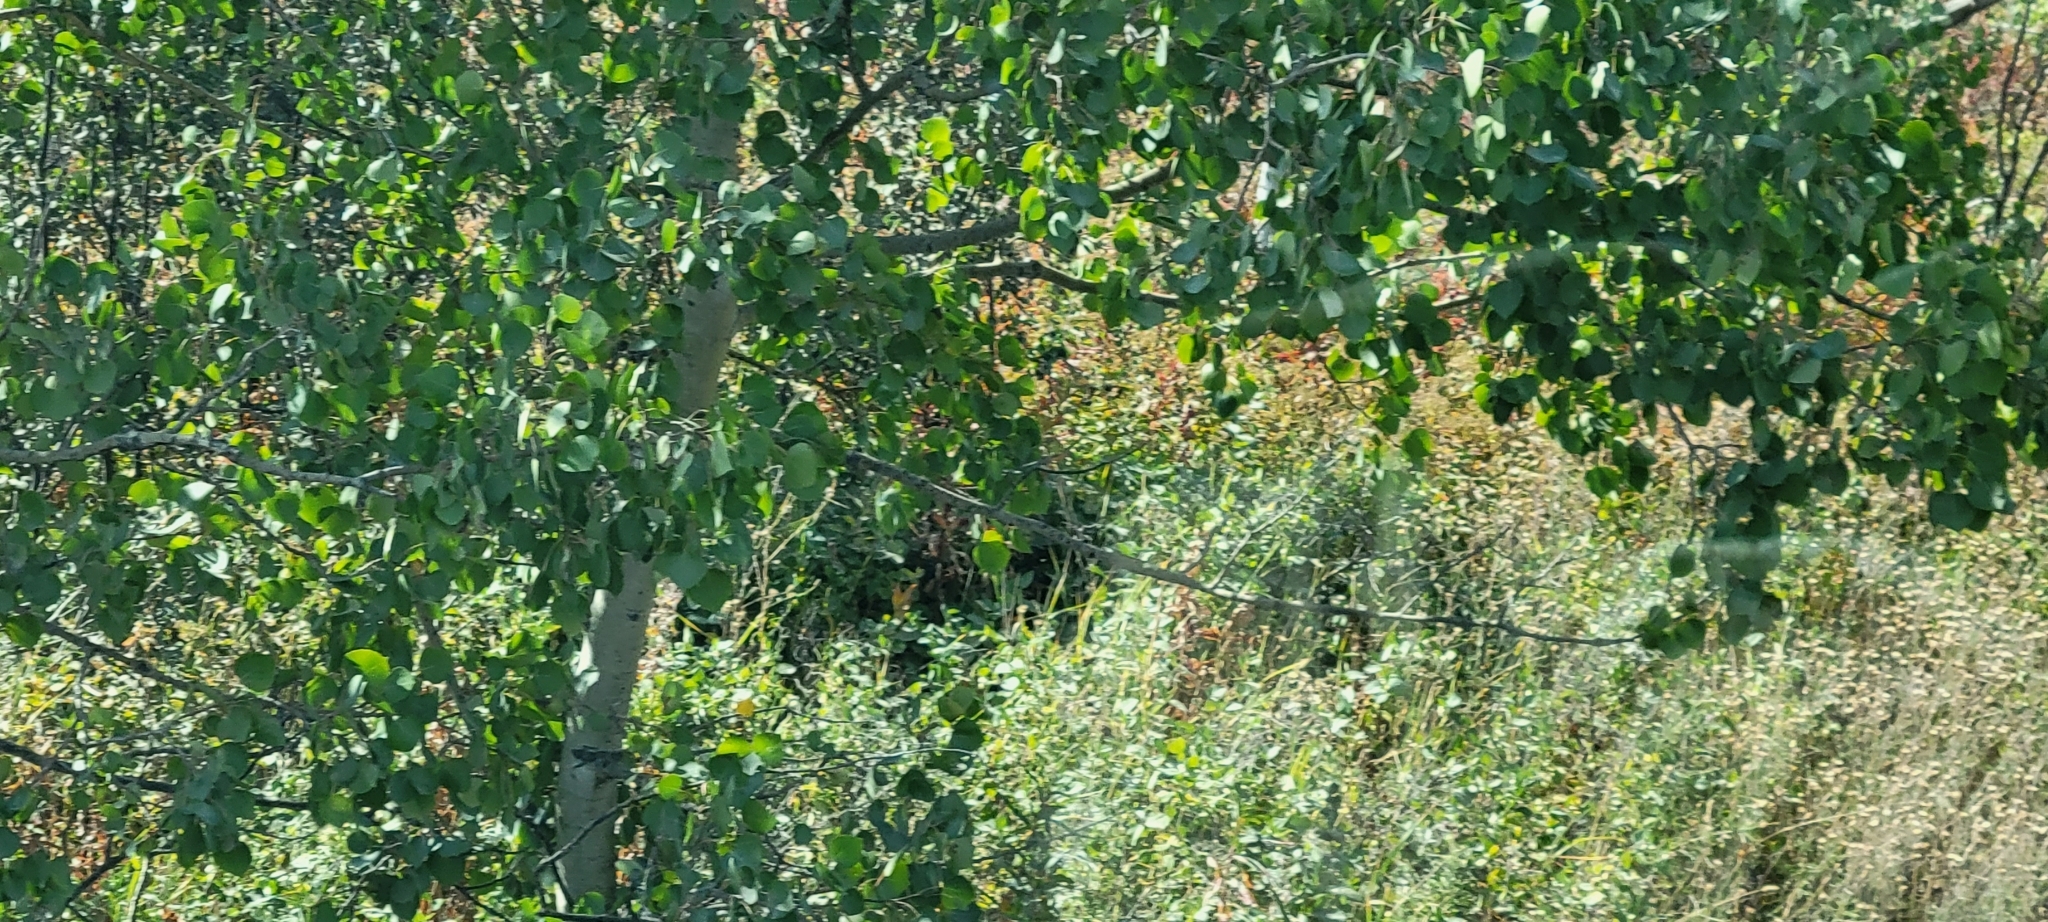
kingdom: Plantae
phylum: Tracheophyta
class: Magnoliopsida
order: Malpighiales
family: Salicaceae
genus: Populus
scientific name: Populus tremuloides
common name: Quaking aspen
